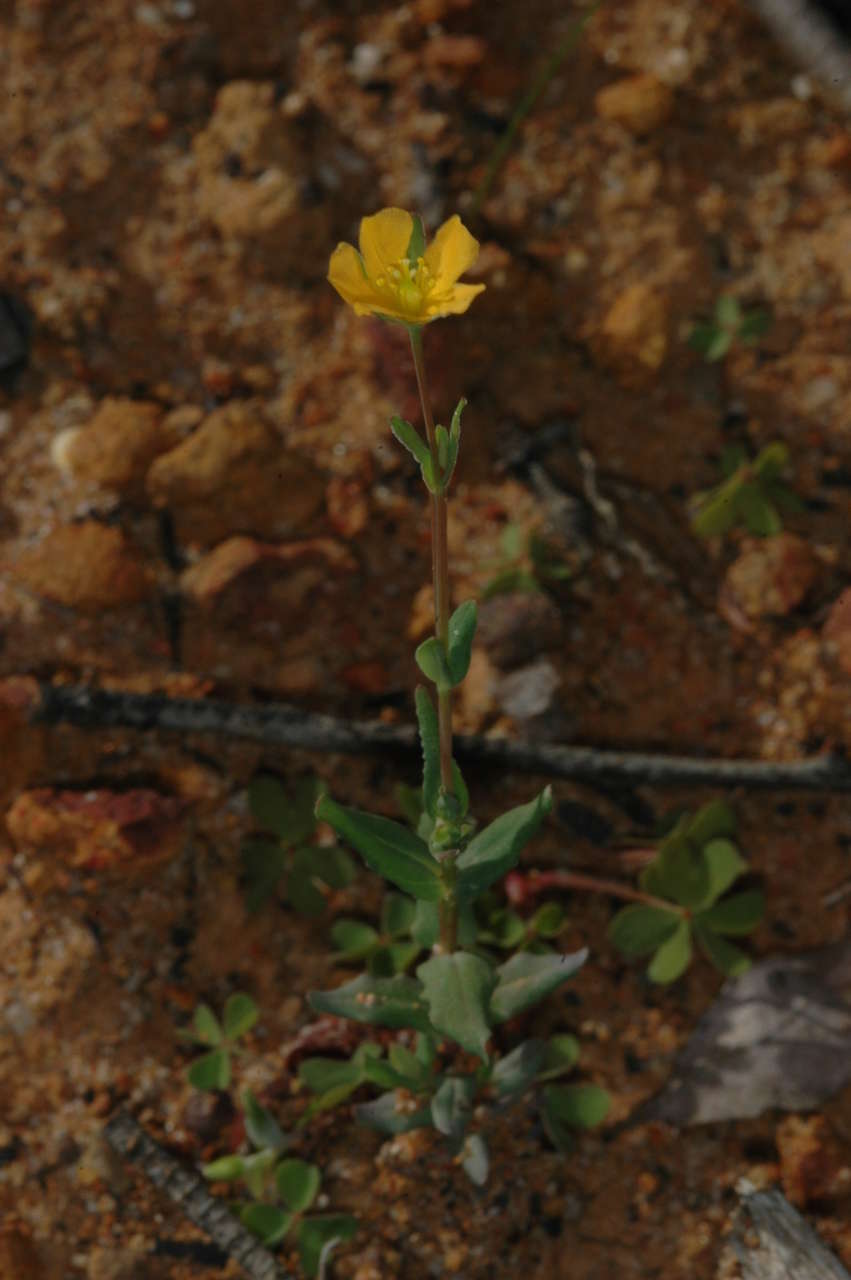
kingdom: Plantae
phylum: Tracheophyta
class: Magnoliopsida
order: Malpighiales
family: Hypericaceae
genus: Hypericum
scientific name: Hypericum gramineum
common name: Grassy st. johnswort
